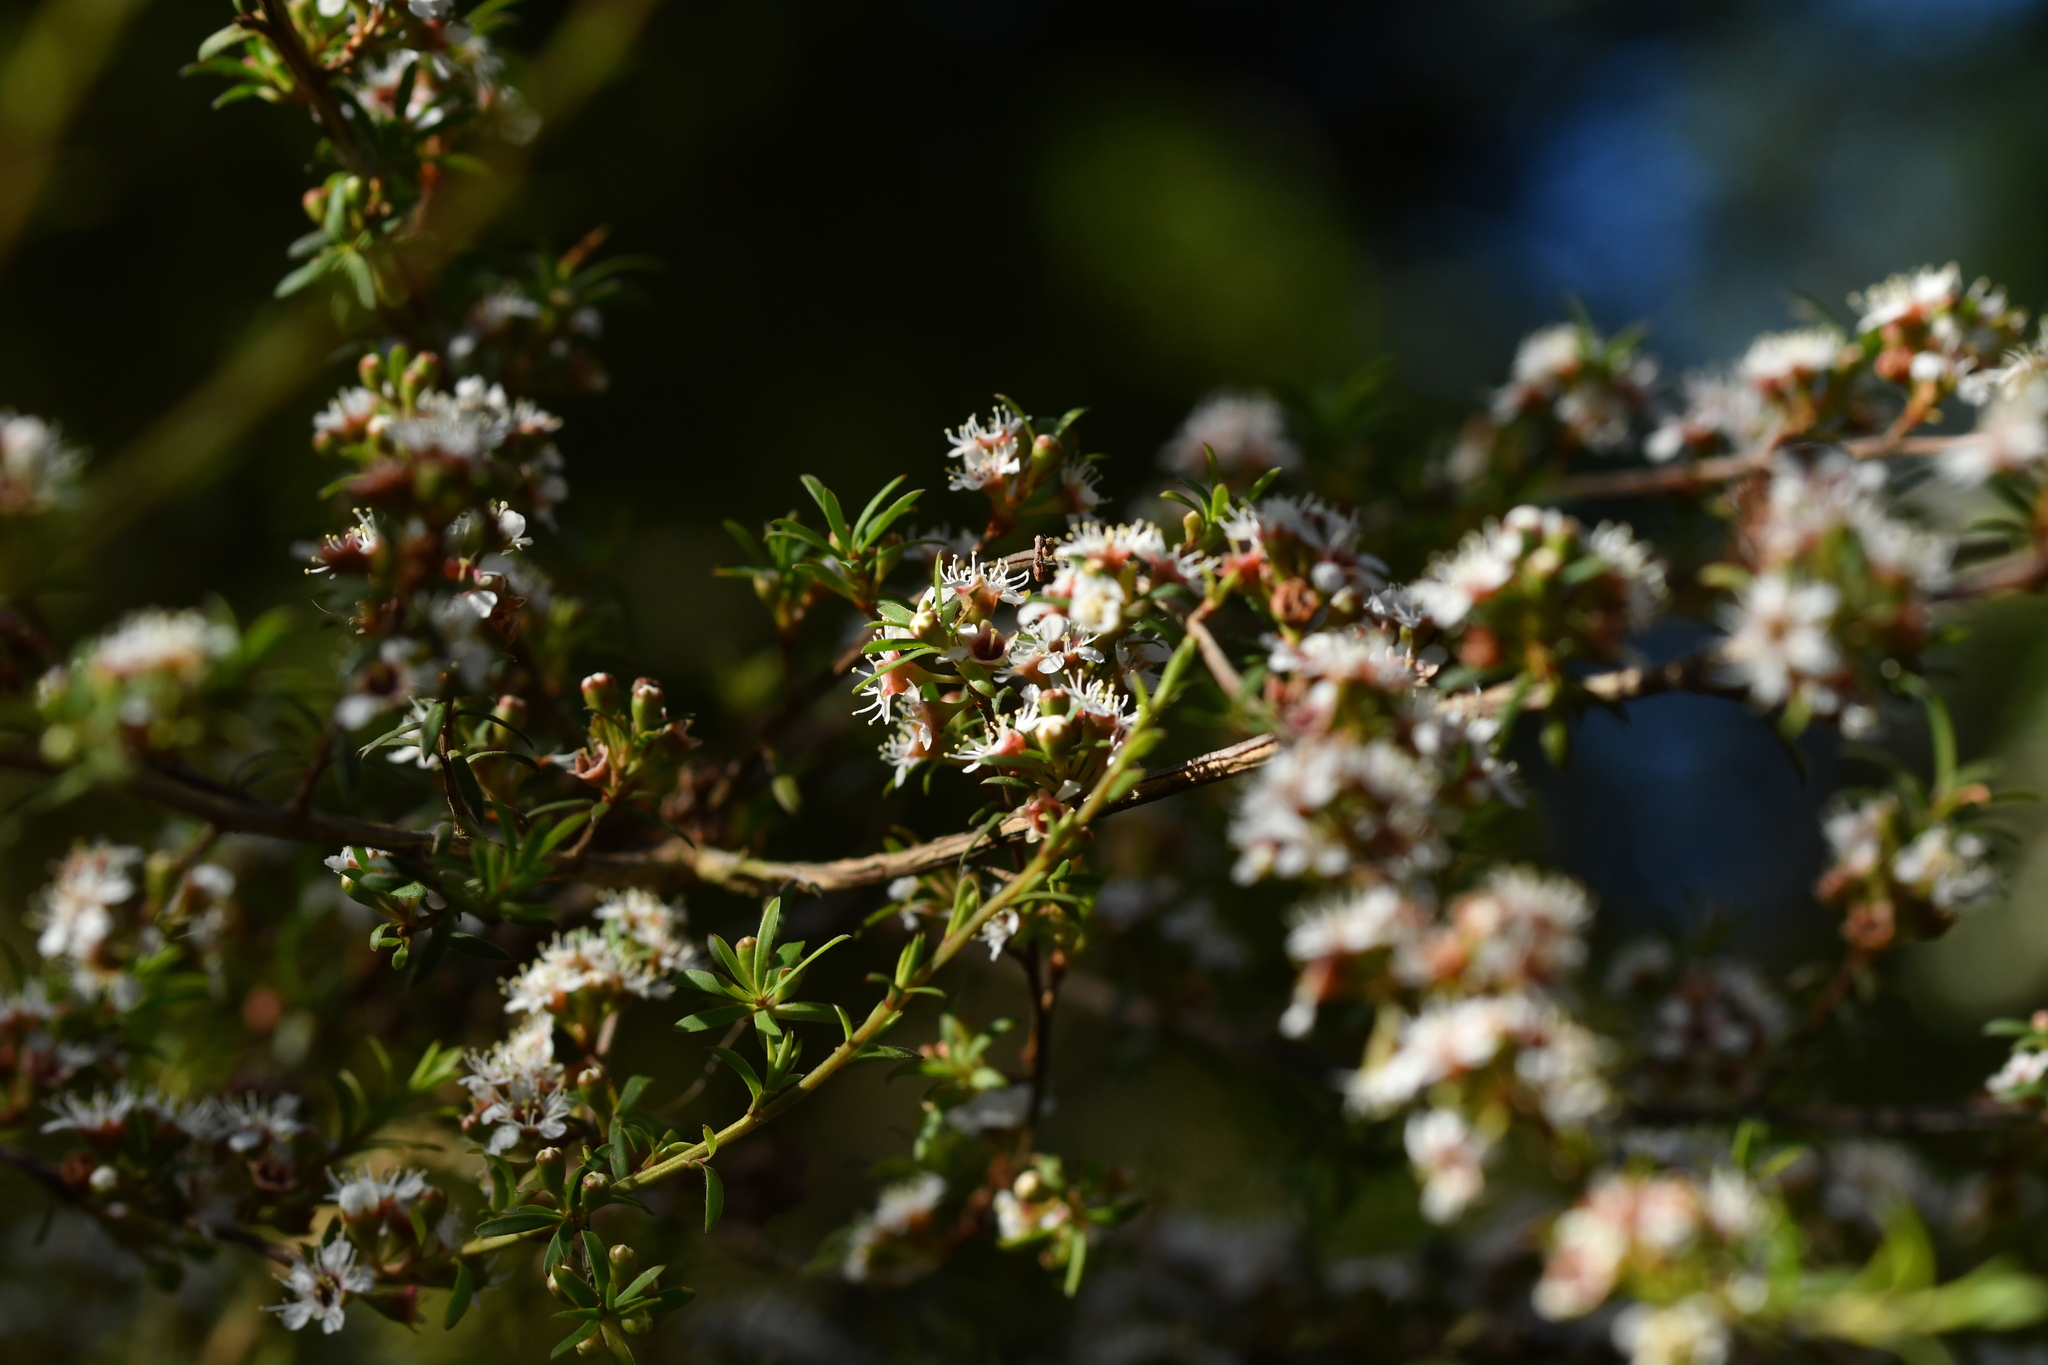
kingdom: Plantae
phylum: Tracheophyta
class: Magnoliopsida
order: Myrtales
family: Myrtaceae
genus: Kunzea
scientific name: Kunzea robusta
